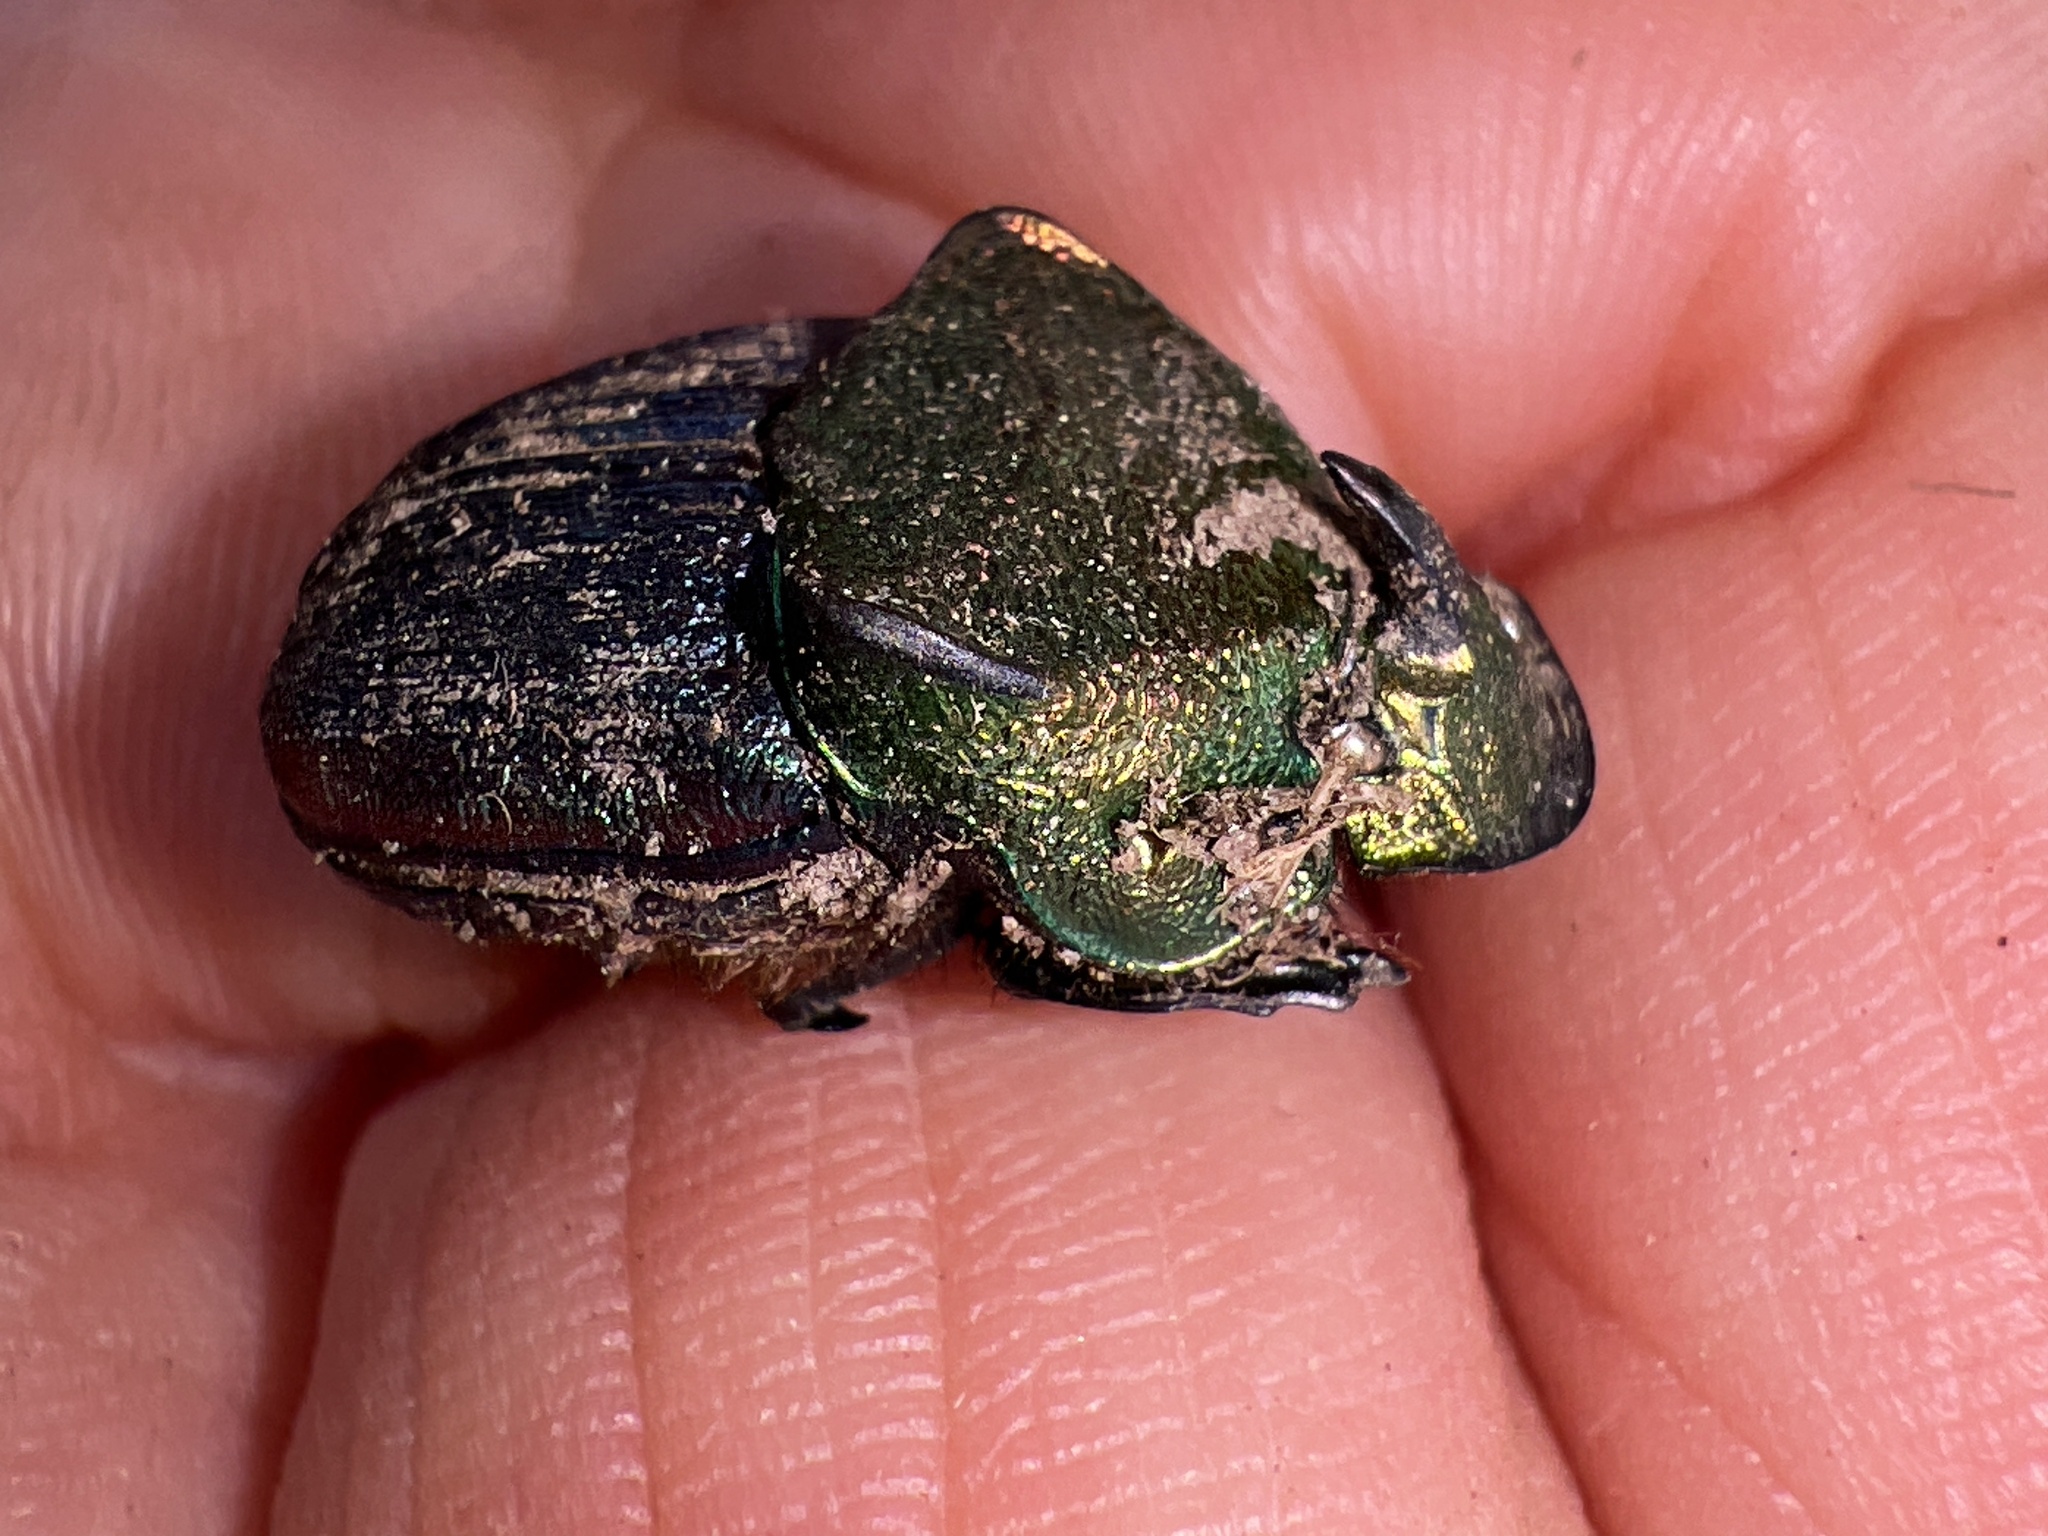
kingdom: Animalia
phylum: Arthropoda
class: Insecta
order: Coleoptera
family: Scarabaeidae
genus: Phanaeus
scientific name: Phanaeus vindex
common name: Rainbow scarab
